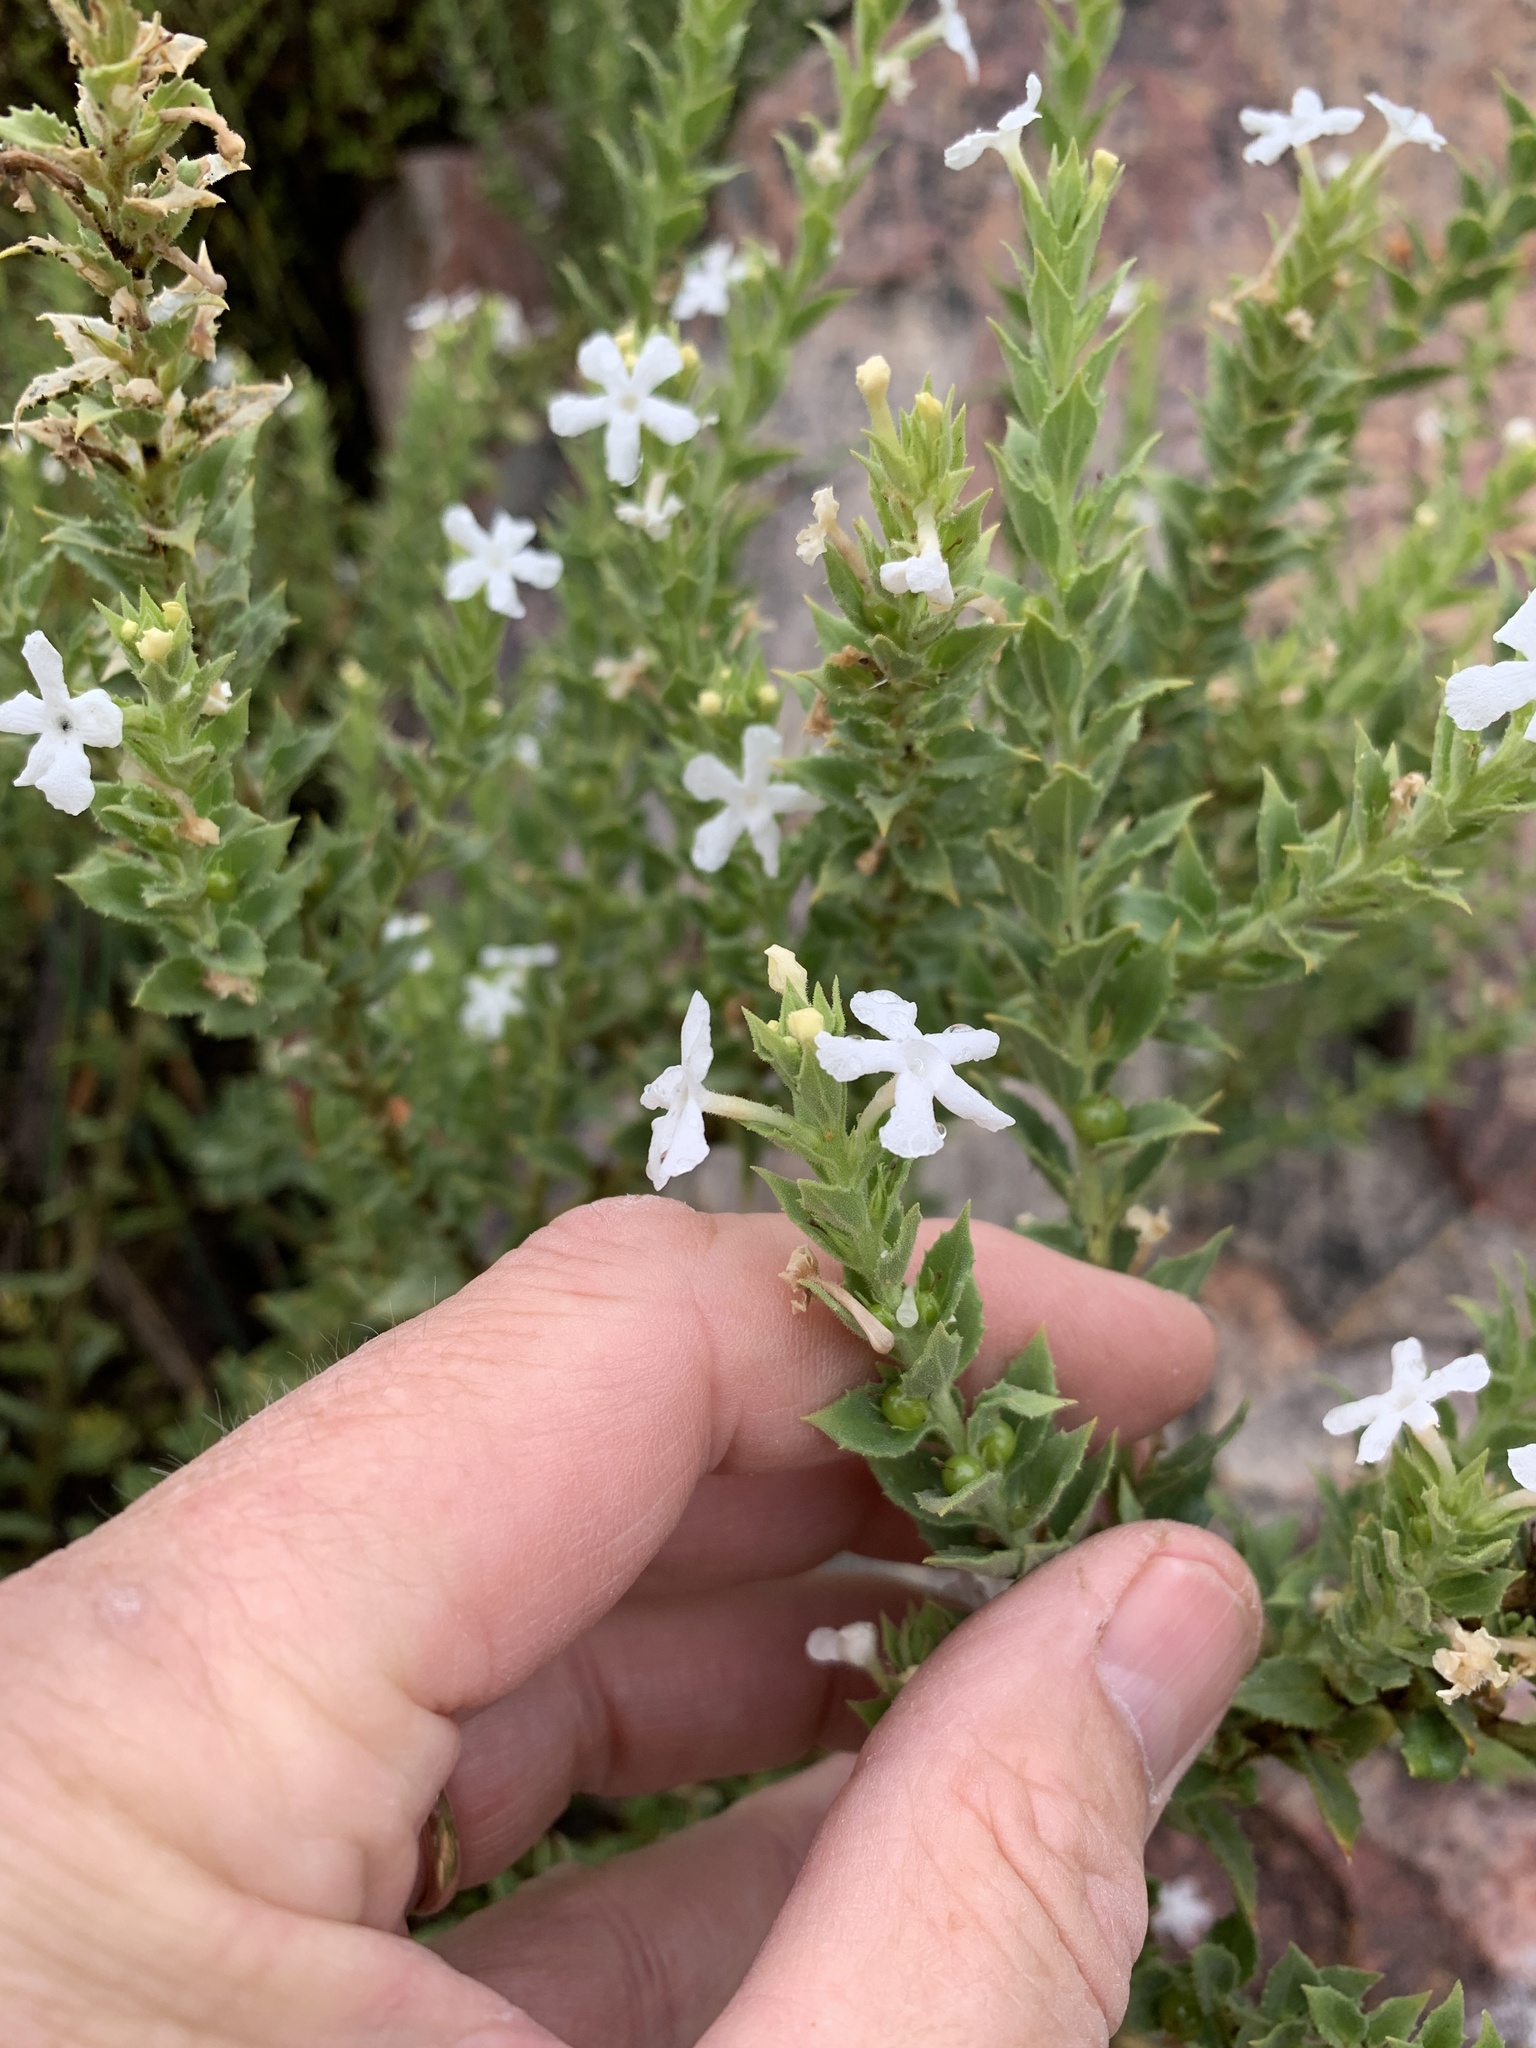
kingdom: Plantae
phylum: Tracheophyta
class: Magnoliopsida
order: Lamiales
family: Scrophulariaceae
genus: Oftia
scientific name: Oftia africana
